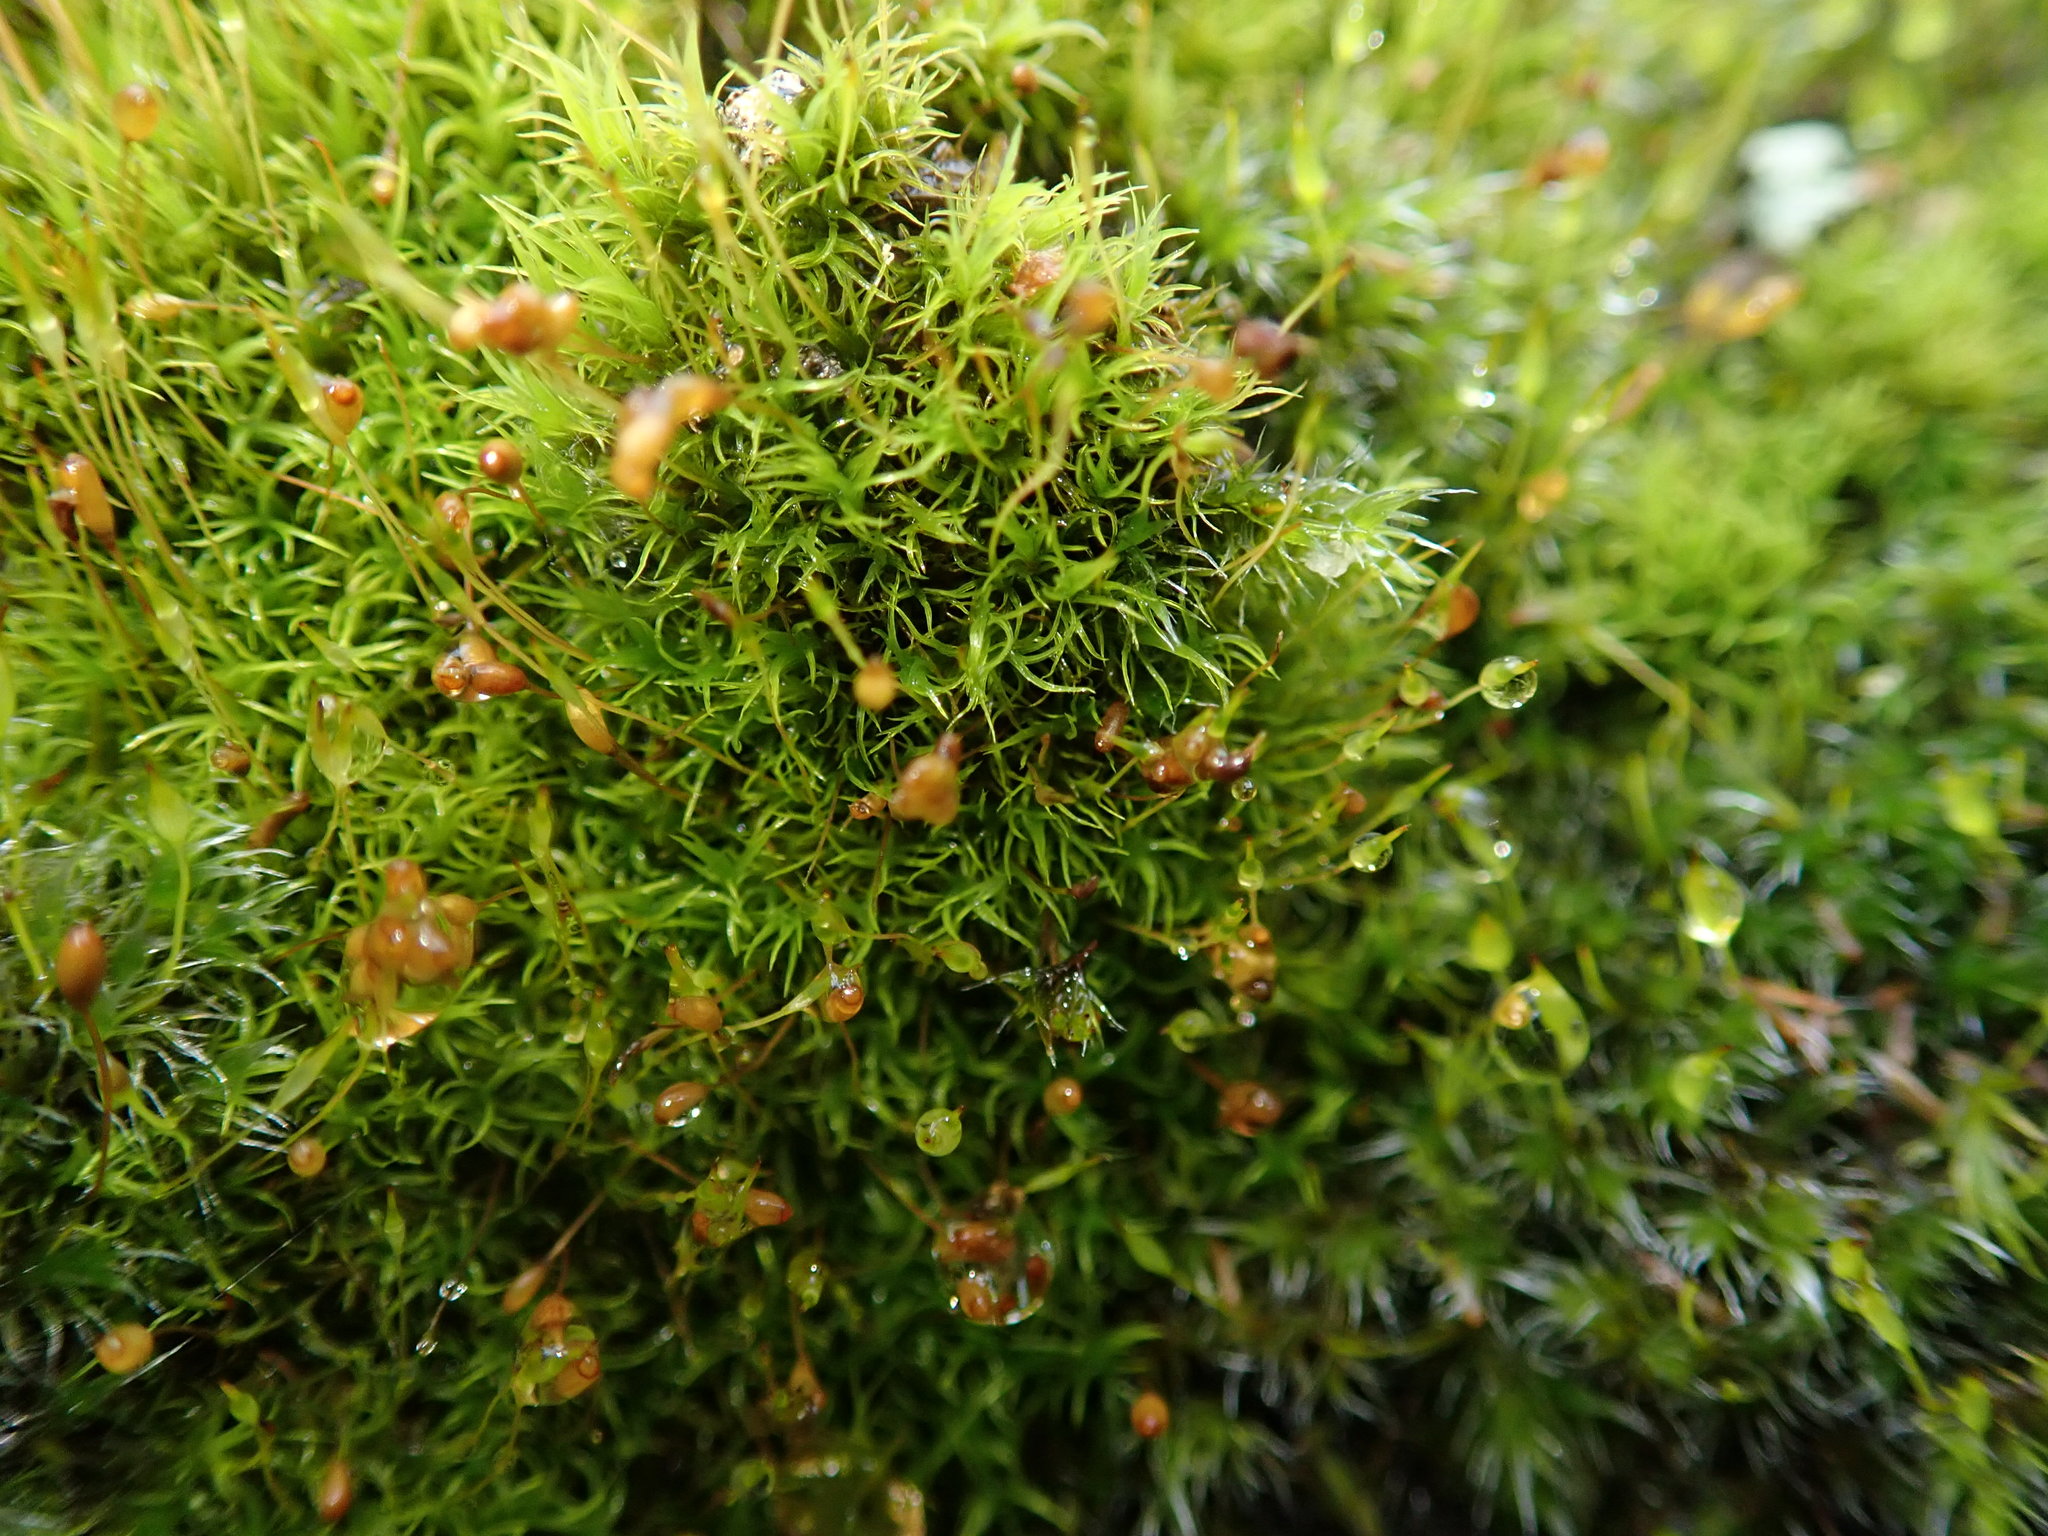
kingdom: Plantae
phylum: Bryophyta
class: Bryopsida
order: Dicranales
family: Dicranellaceae
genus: Dicranella
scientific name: Dicranella varia
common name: Variable forklet moss
